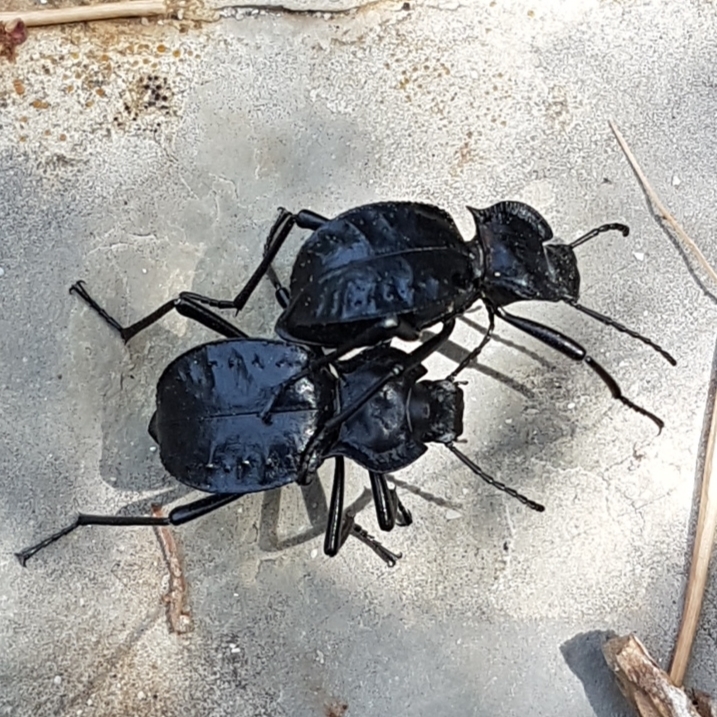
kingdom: Animalia
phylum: Arthropoda
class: Insecta
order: Coleoptera
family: Tenebrionidae
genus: Akis
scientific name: Akis bacarozzo
